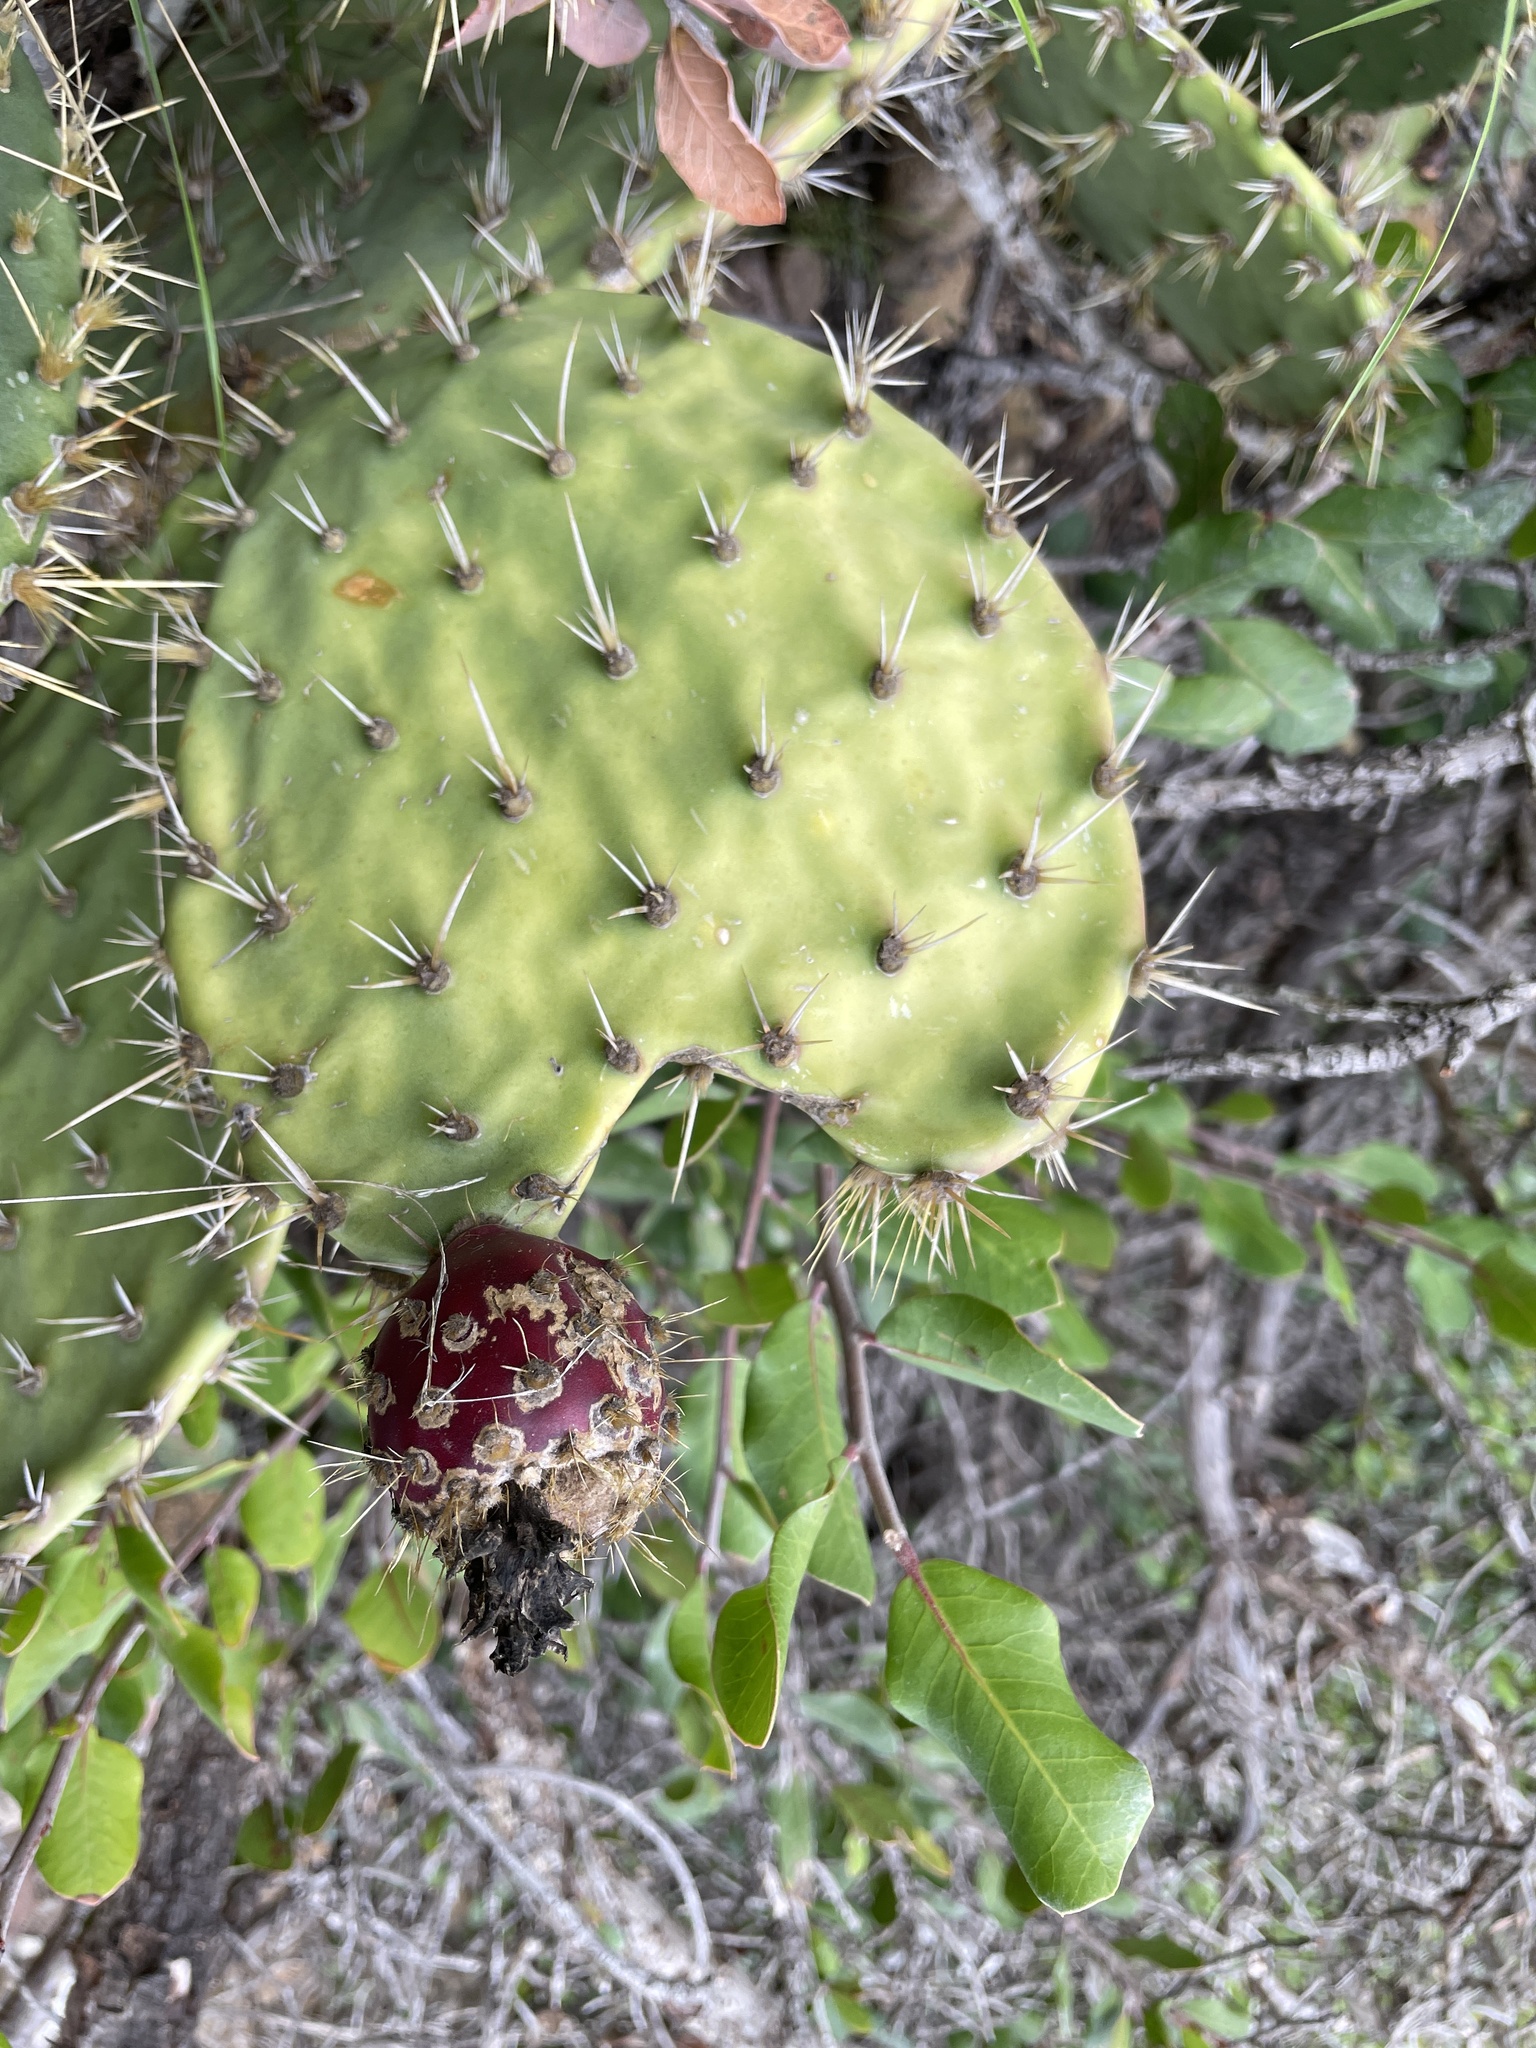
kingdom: Plantae
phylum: Tracheophyta
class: Magnoliopsida
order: Caryophyllales
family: Cactaceae
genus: Opuntia
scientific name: Opuntia oricola
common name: Chaparral prickly-pear
